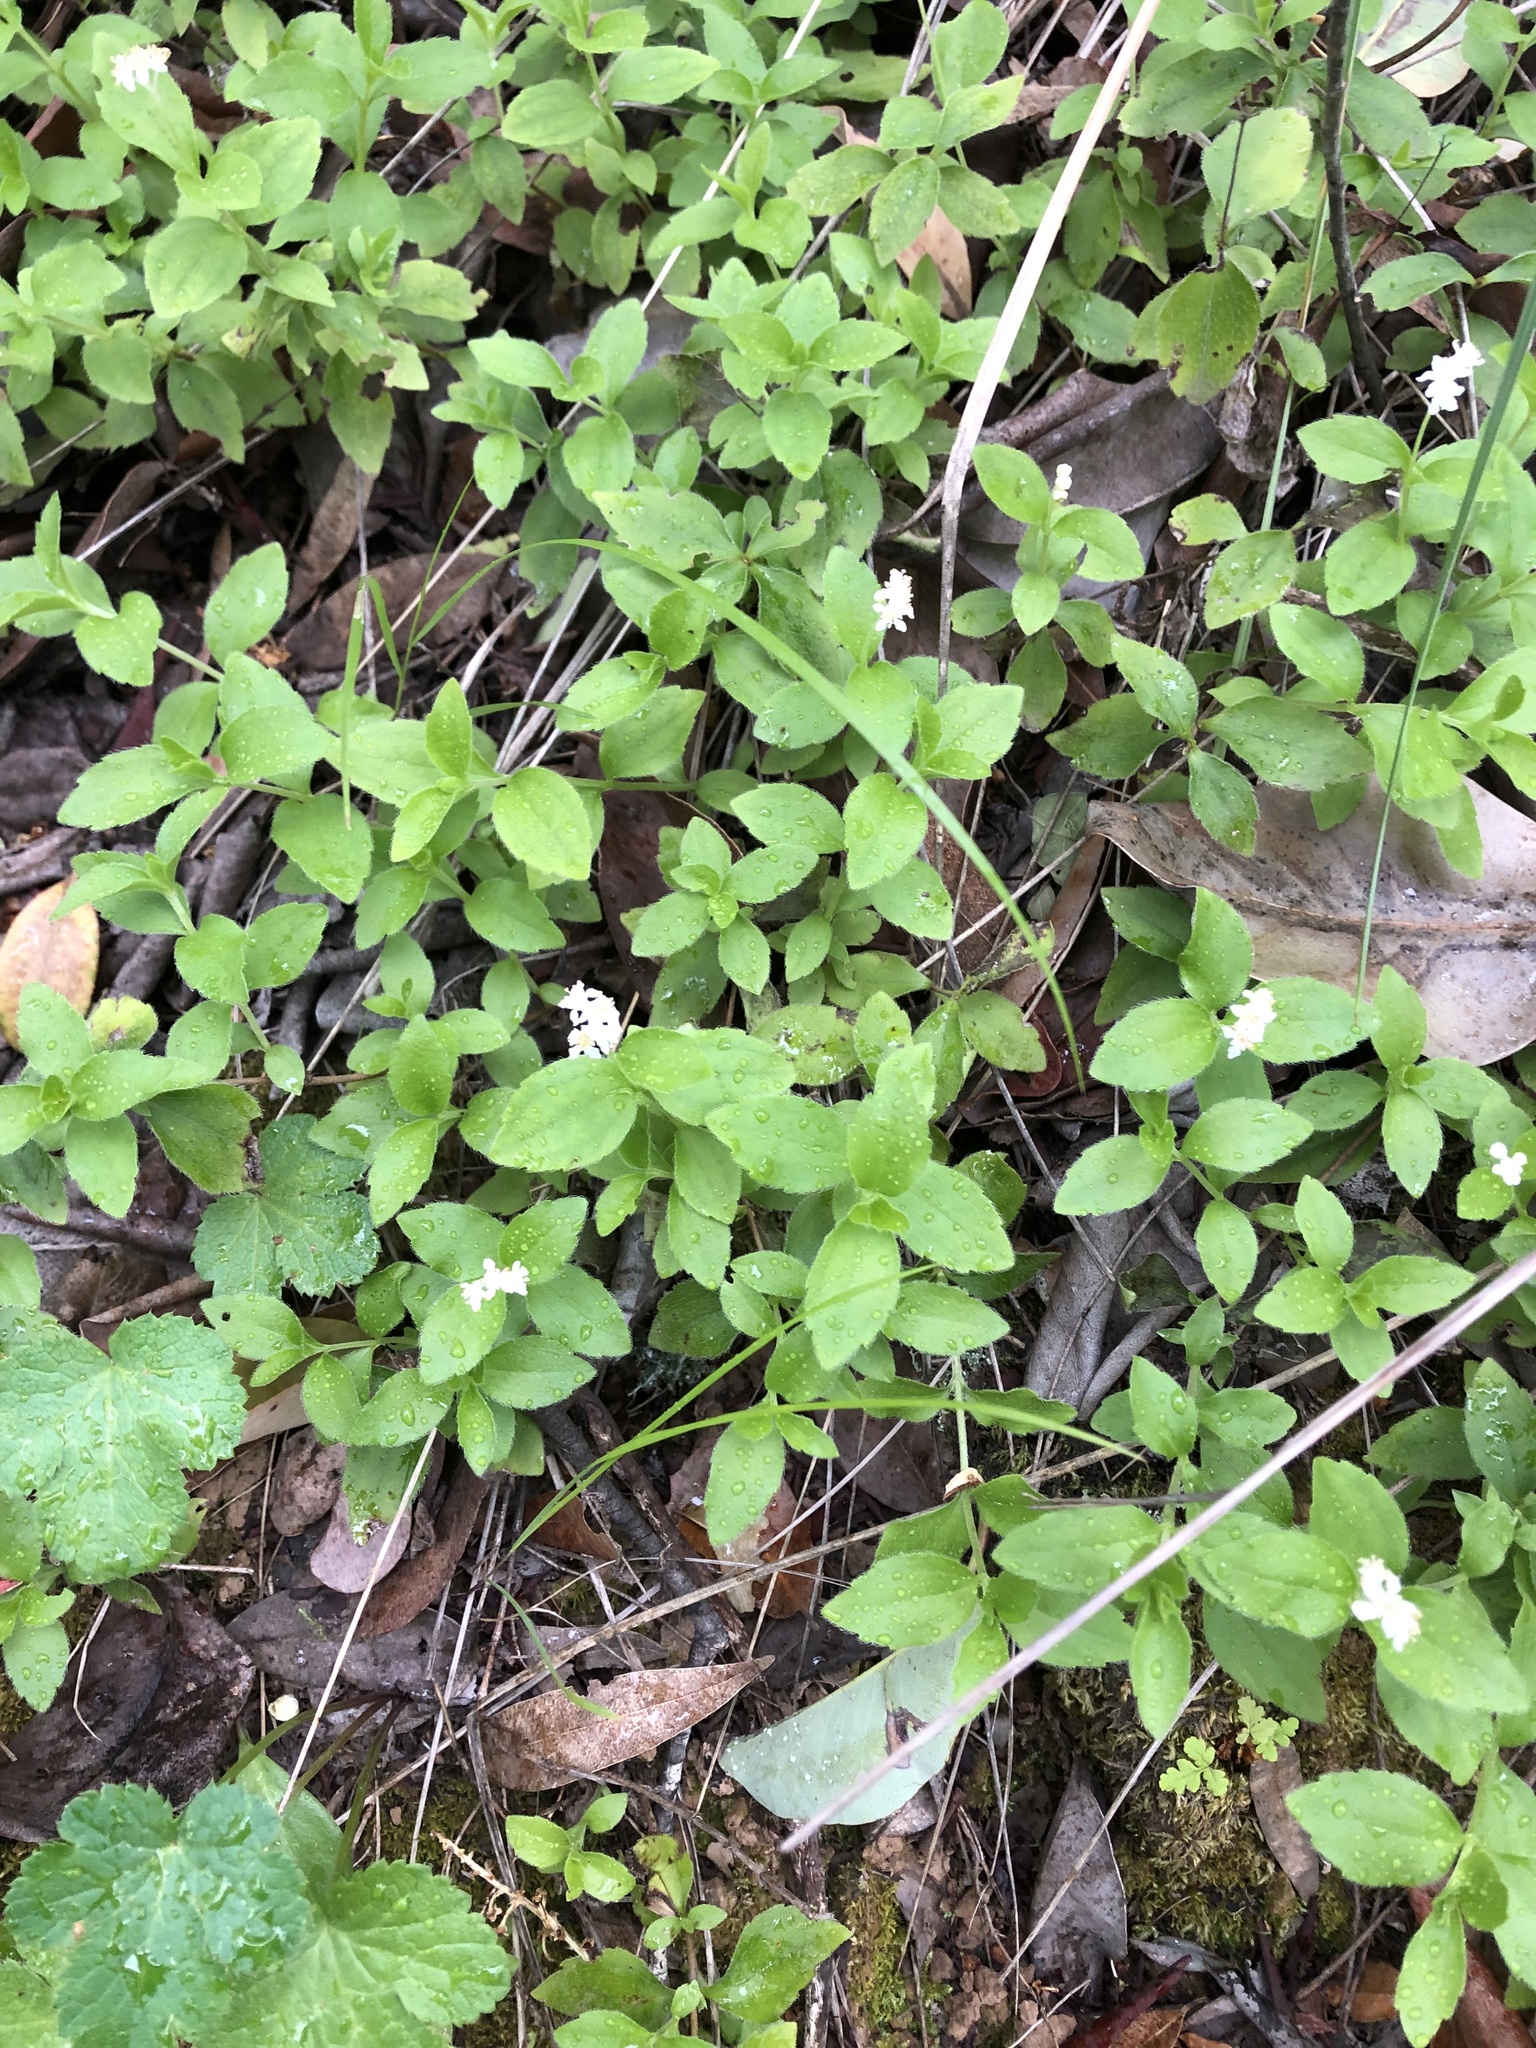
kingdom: Plantae
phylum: Tracheophyta
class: Magnoliopsida
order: Cornales
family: Hydrangeaceae
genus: Whipplea
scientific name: Whipplea modesta
